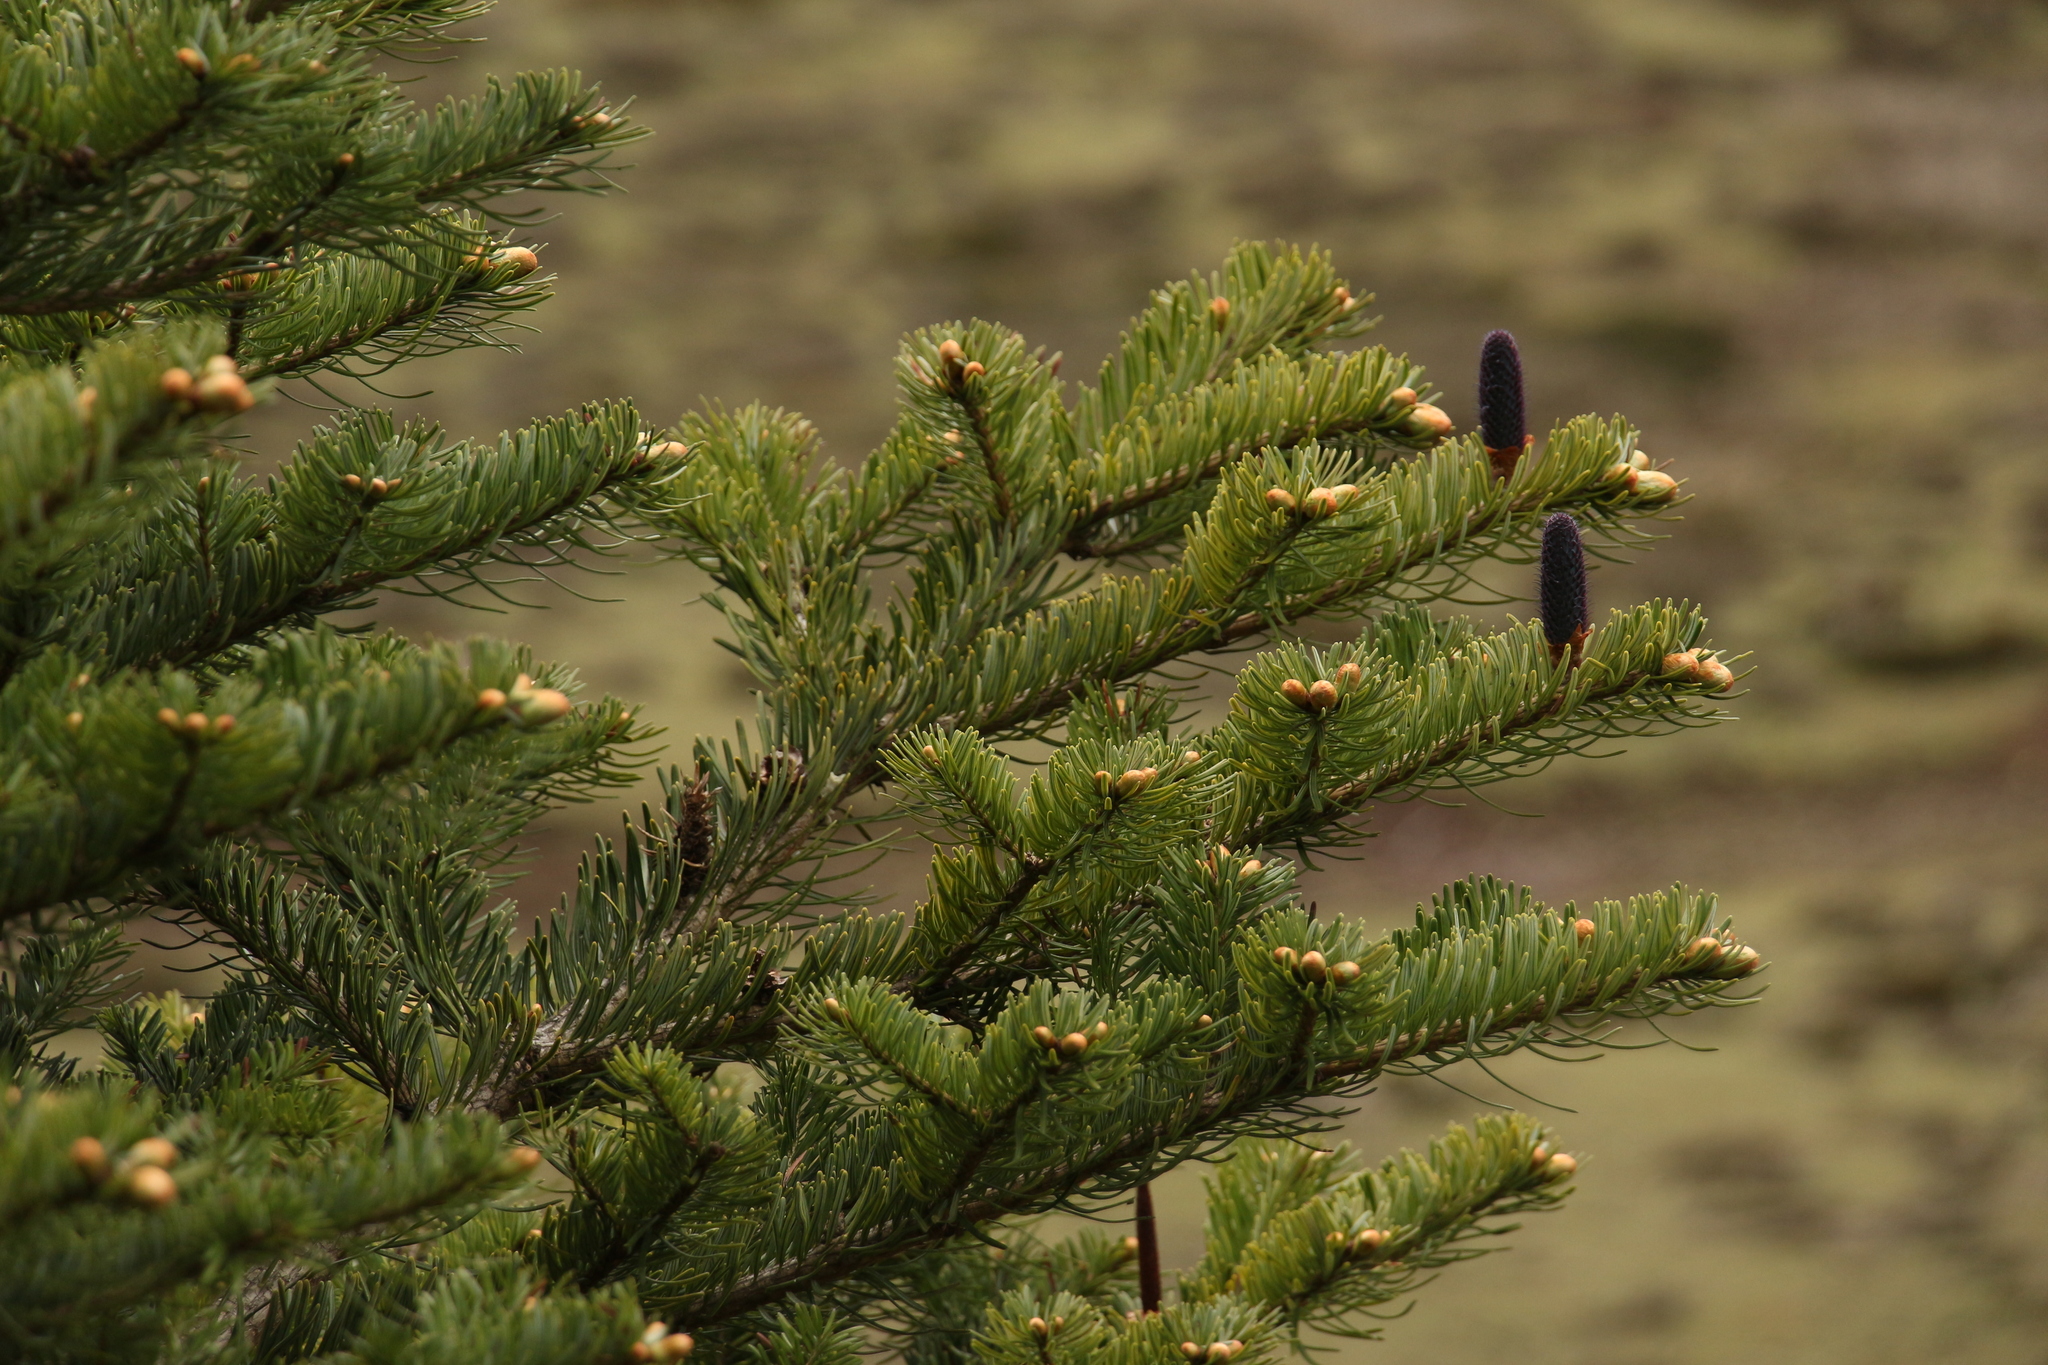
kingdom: Plantae
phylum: Tracheophyta
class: Pinopsida
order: Pinales
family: Pinaceae
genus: Abies
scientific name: Abies densa
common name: Sikkim fir
